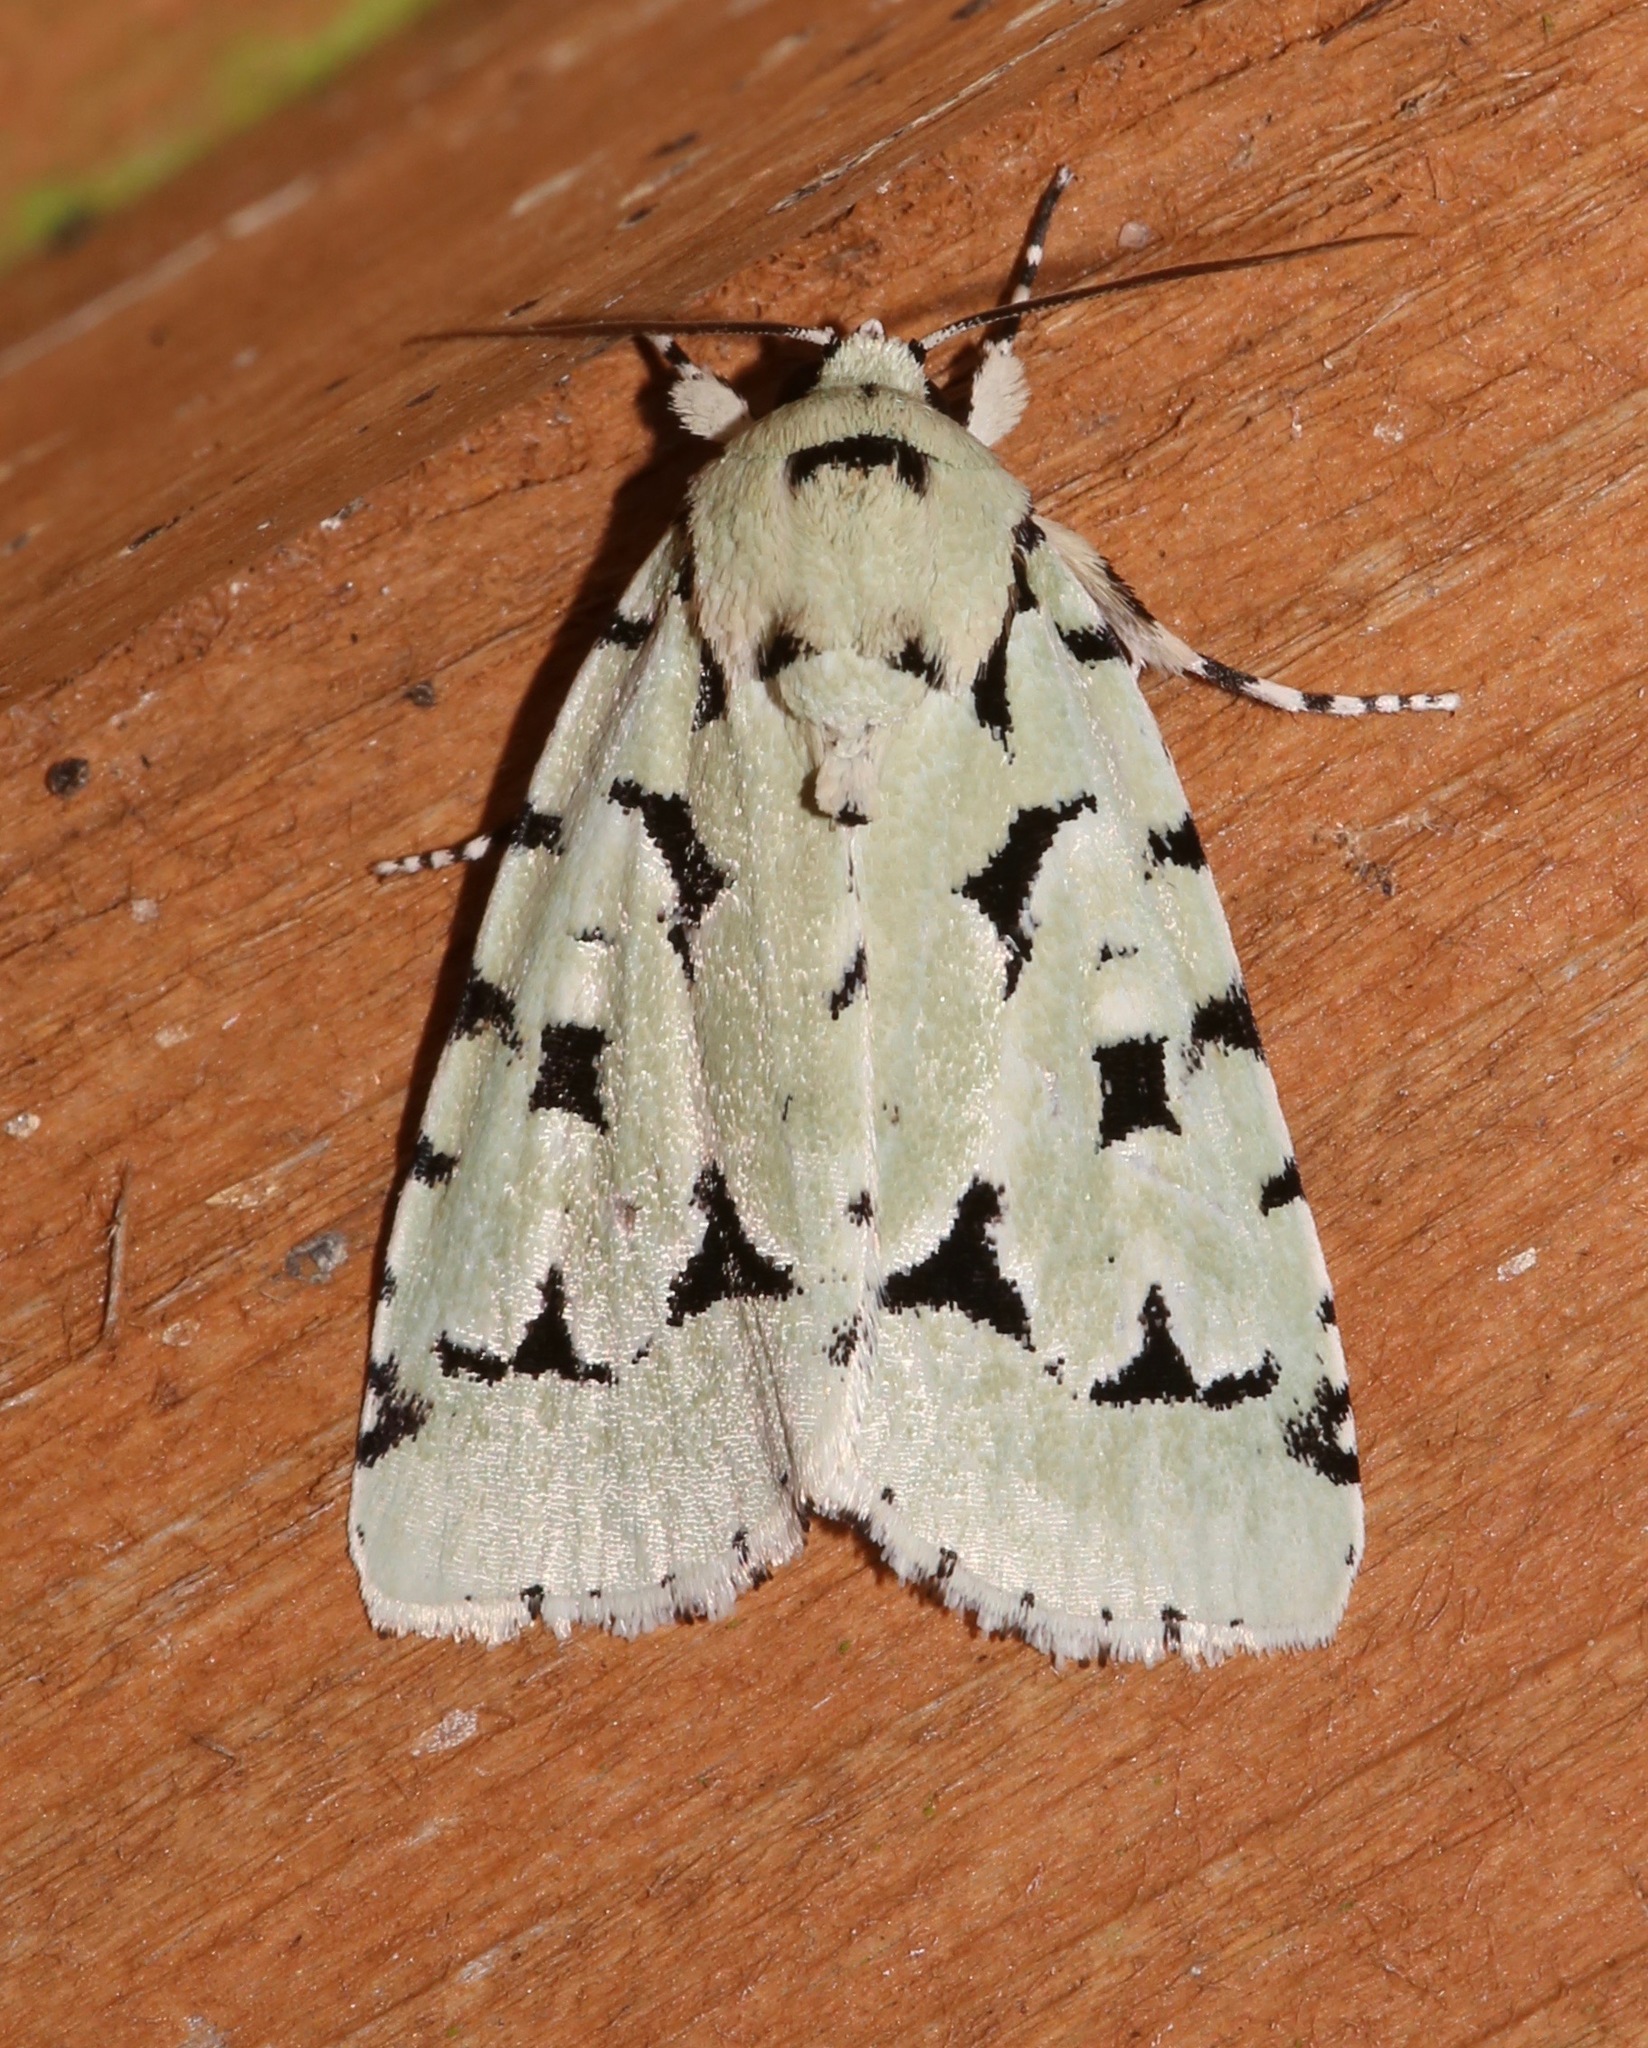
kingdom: Animalia
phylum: Arthropoda
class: Insecta
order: Lepidoptera
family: Noctuidae
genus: Acronicta
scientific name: Acronicta fallax
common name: Green marvel
